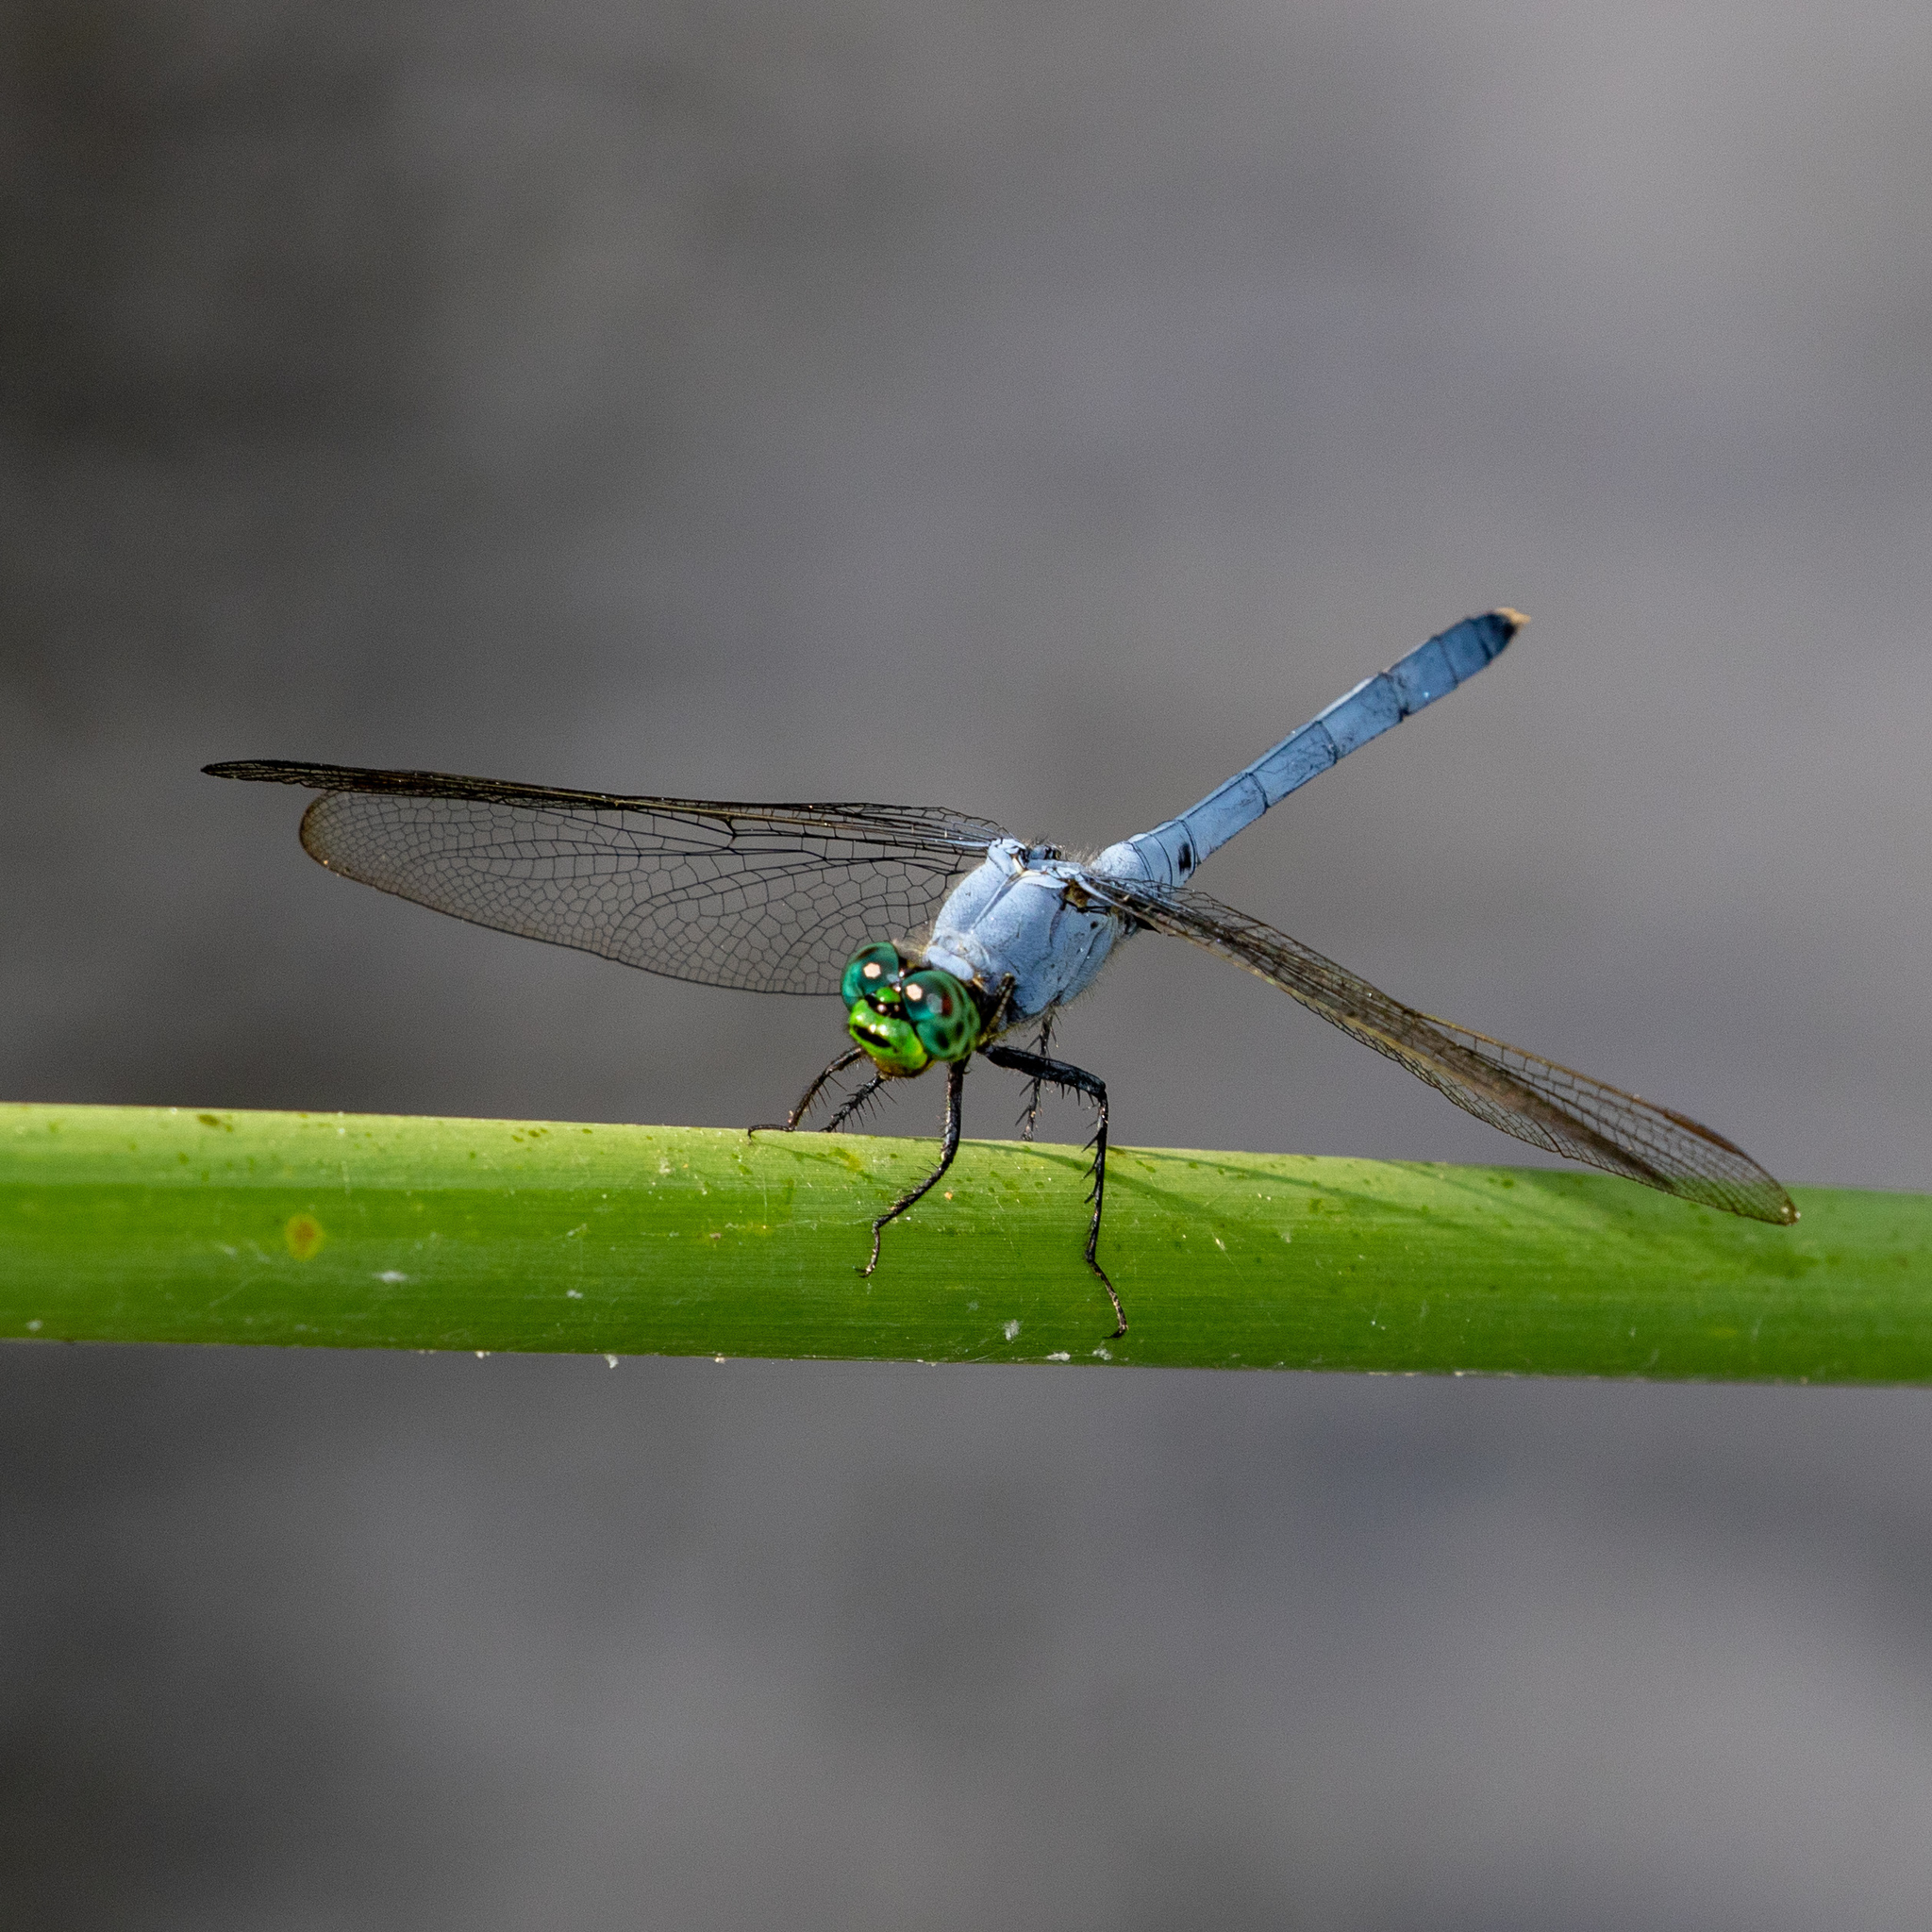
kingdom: Animalia
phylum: Arthropoda
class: Insecta
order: Odonata
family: Libellulidae
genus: Erythemis
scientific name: Erythemis simplicicollis
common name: Eastern pondhawk
